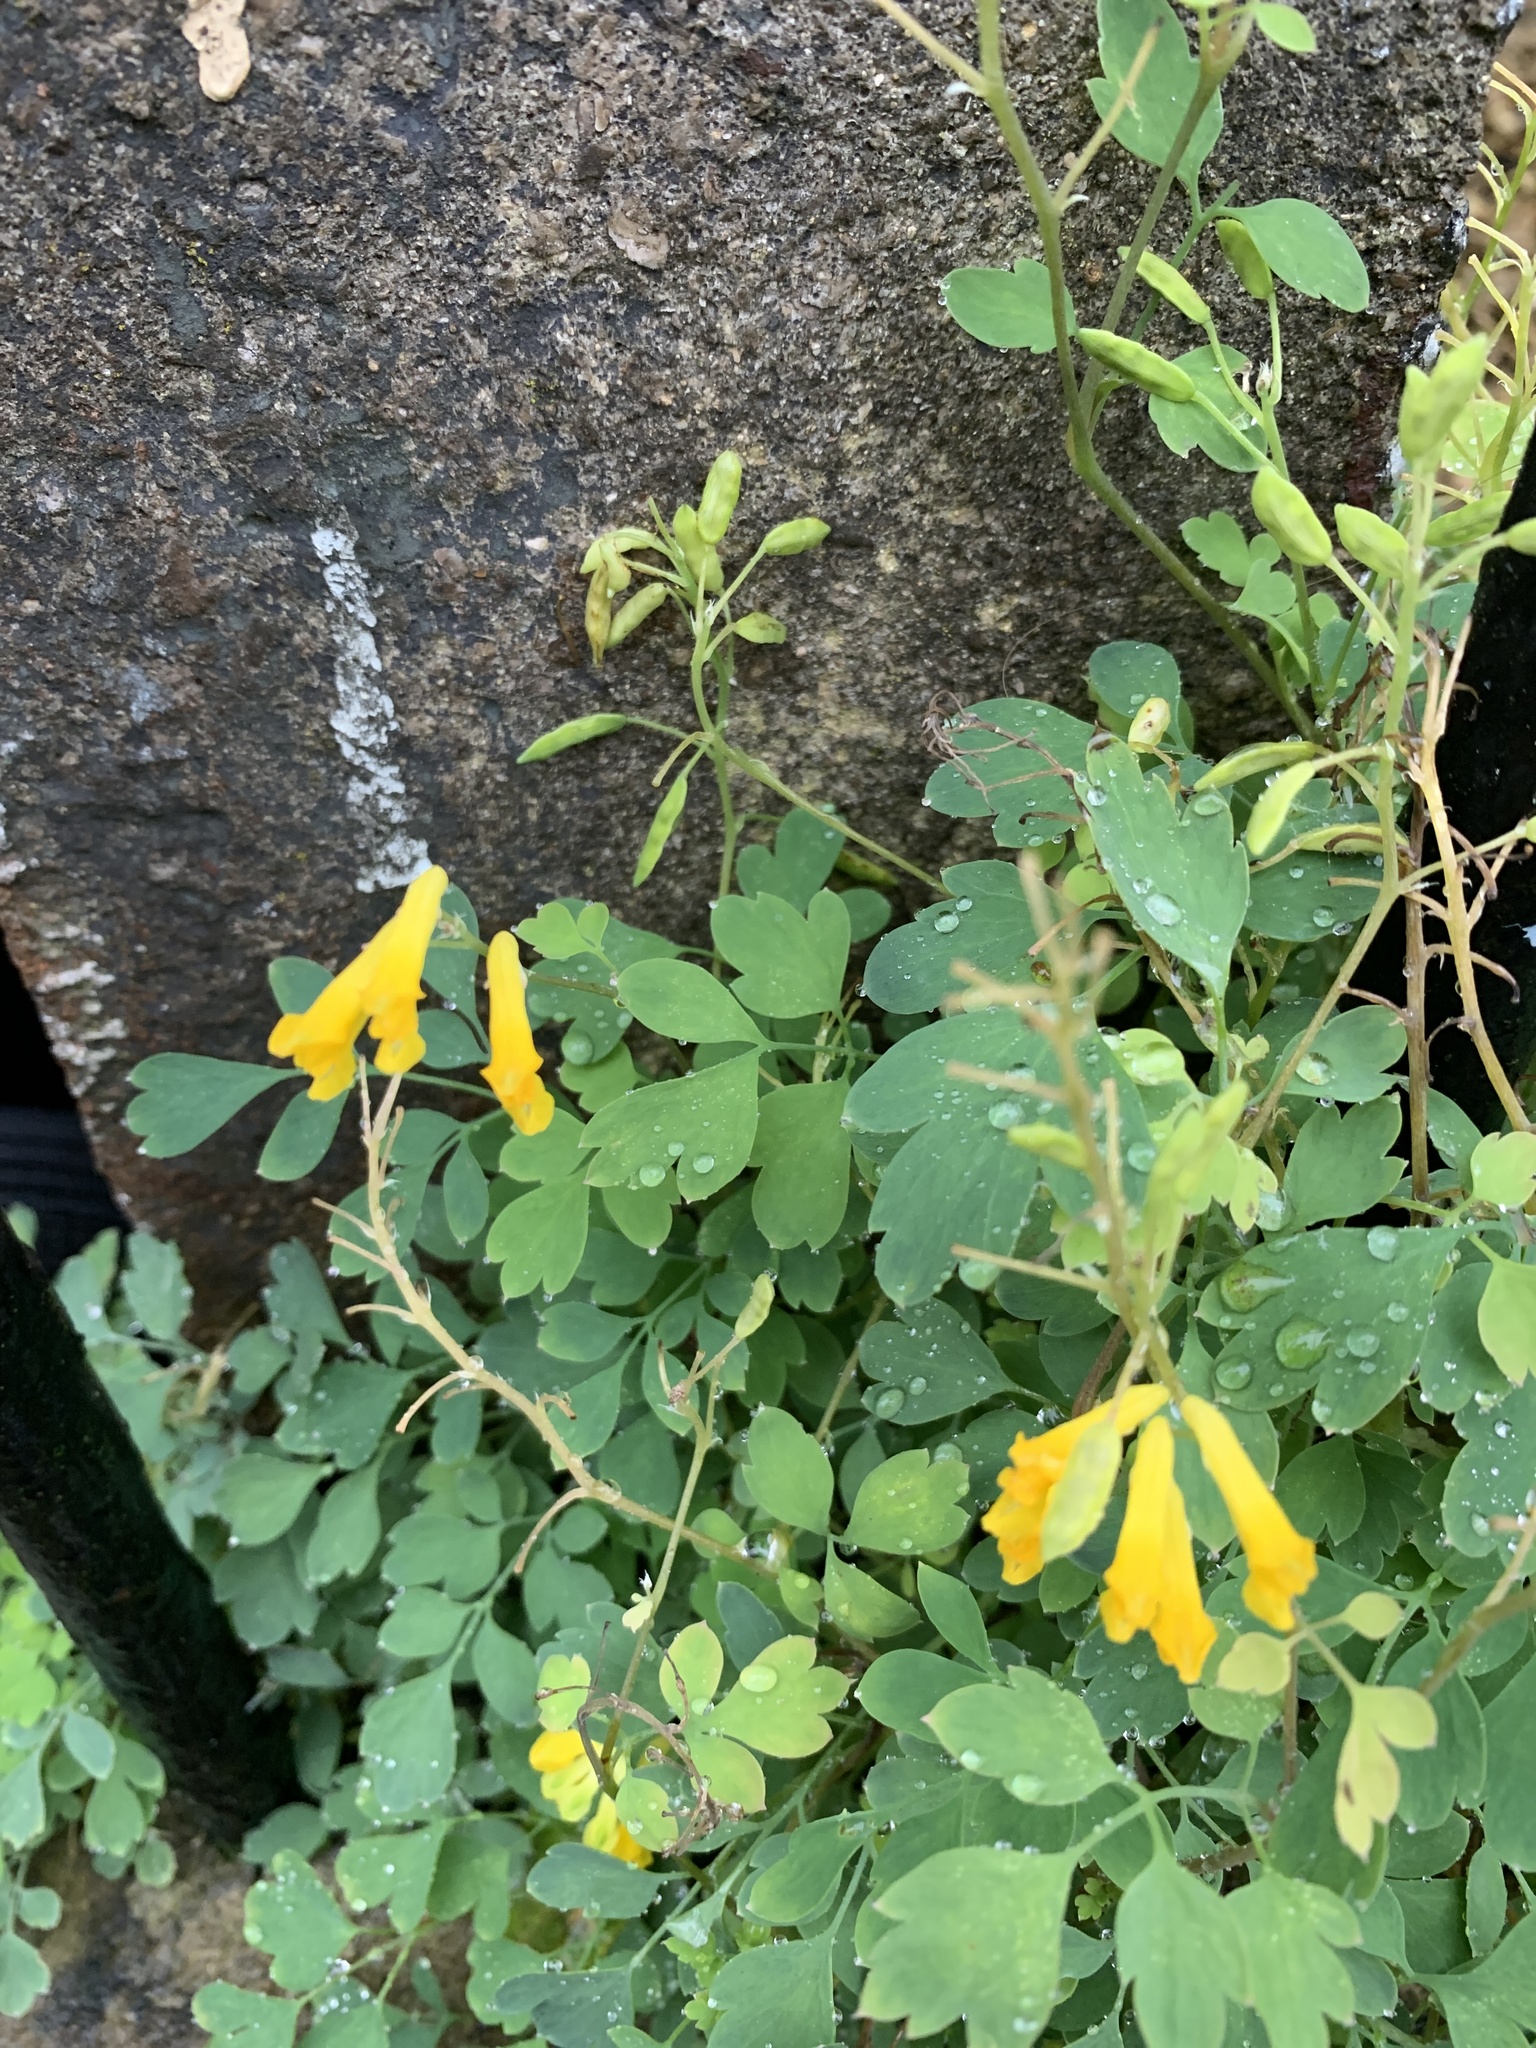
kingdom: Plantae
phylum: Tracheophyta
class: Magnoliopsida
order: Ranunculales
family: Papaveraceae
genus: Pseudofumaria
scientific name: Pseudofumaria lutea
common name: Yellow corydalis
